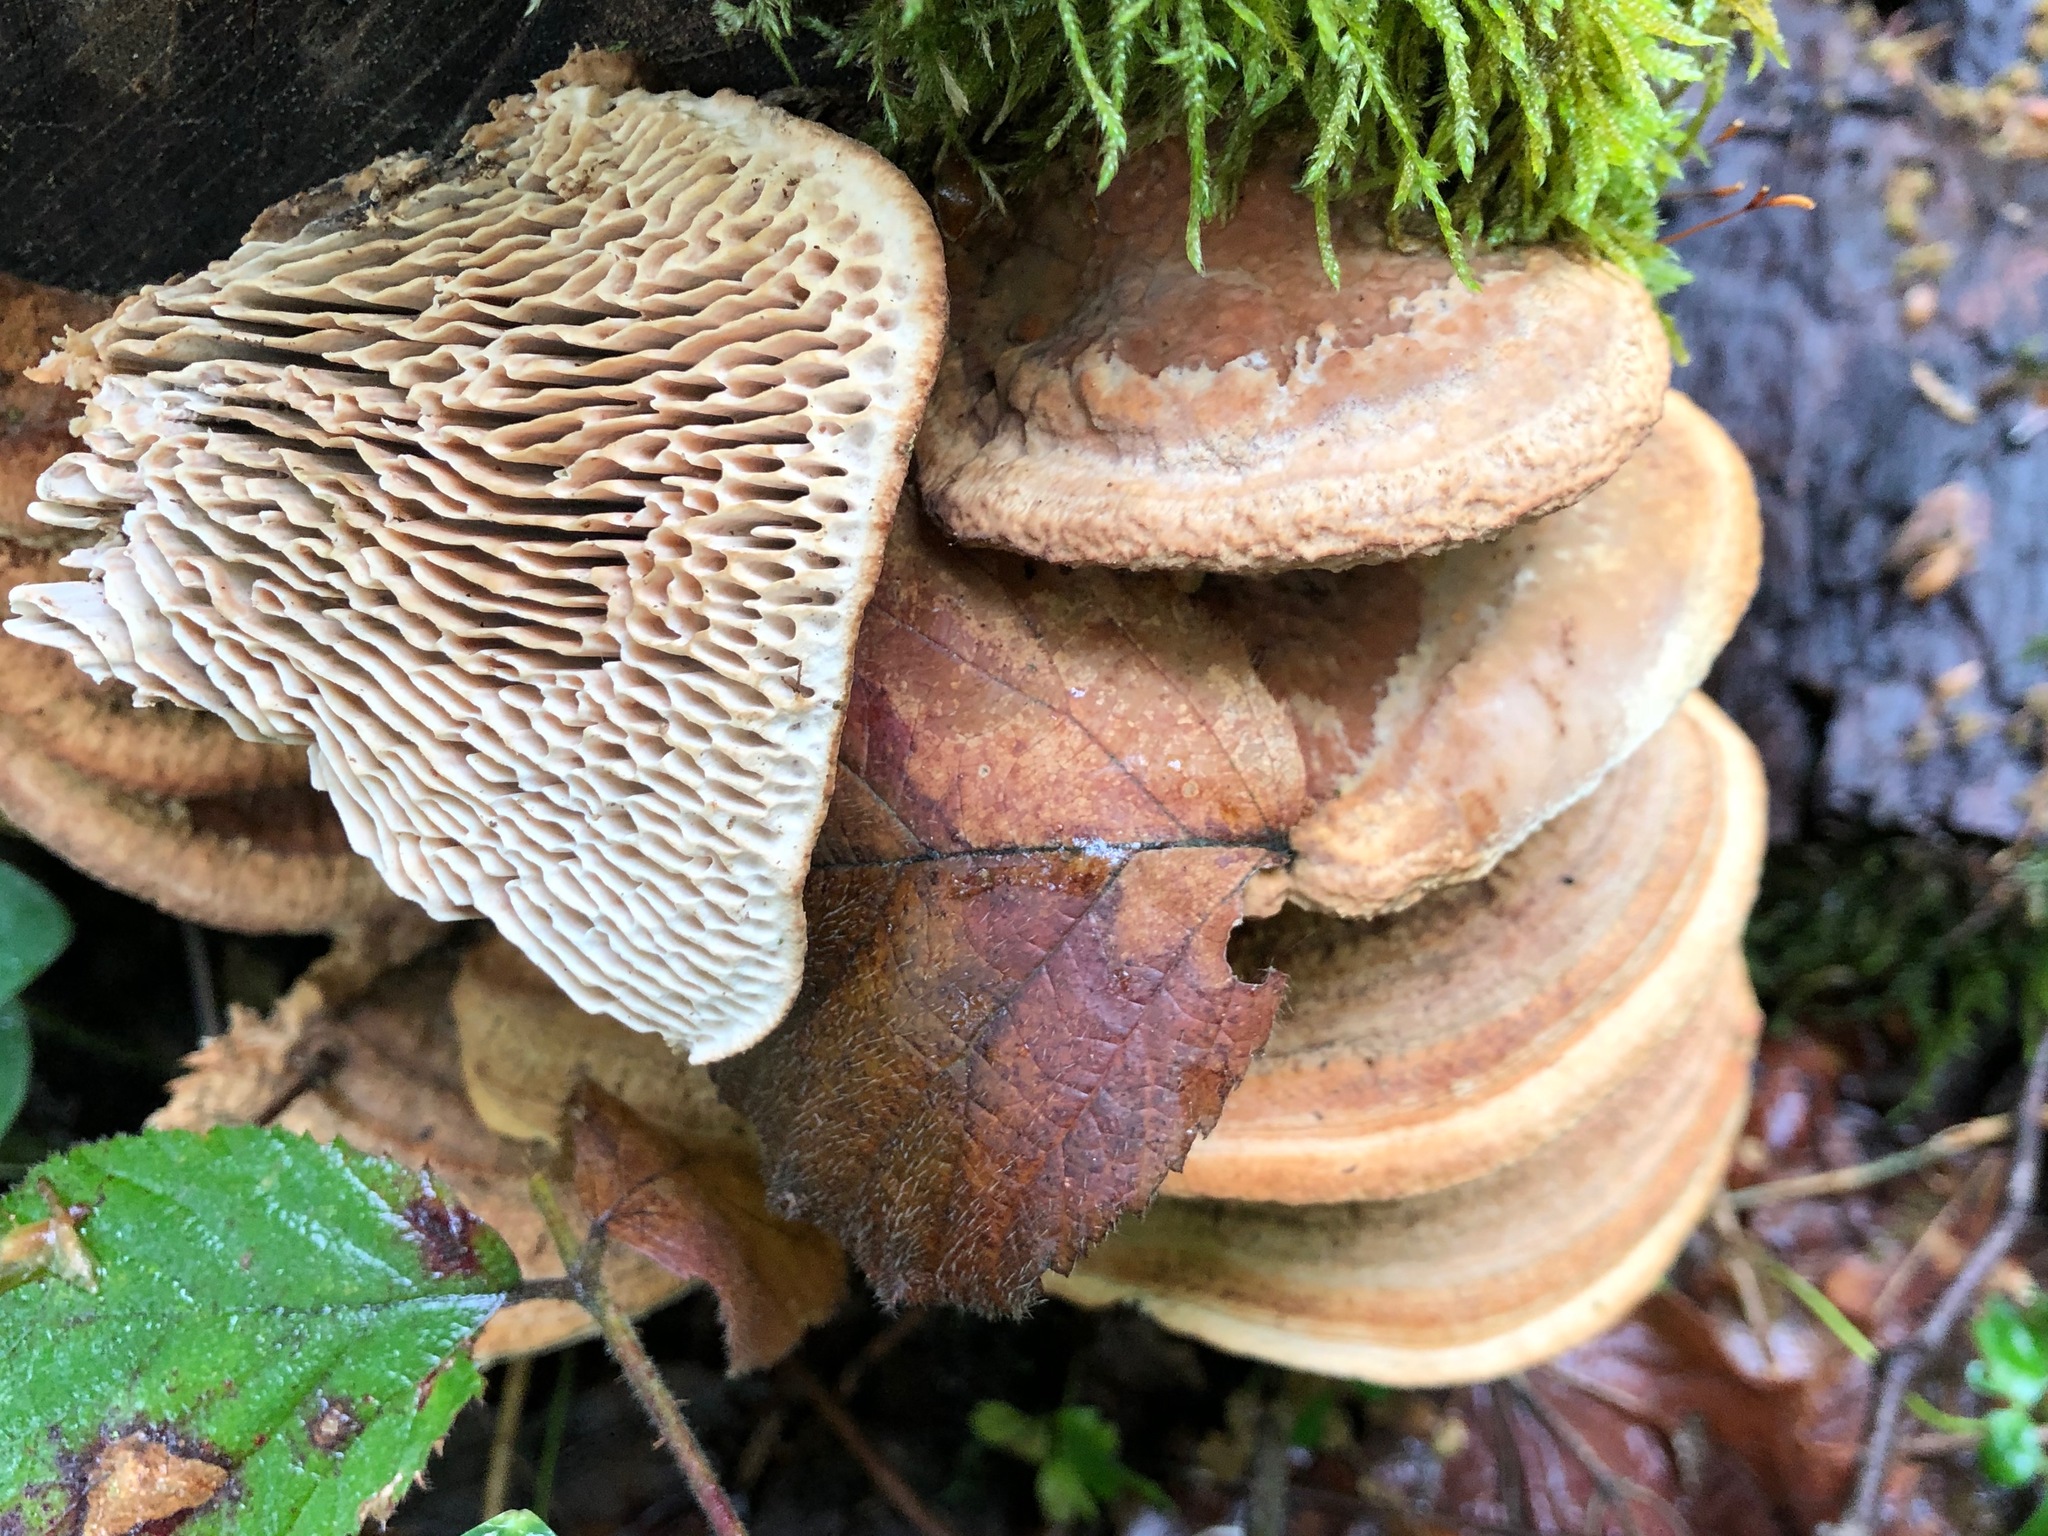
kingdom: Fungi
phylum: Basidiomycota
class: Agaricomycetes
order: Polyporales
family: Fomitopsidaceae
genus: Fomitopsis
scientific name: Fomitopsis
